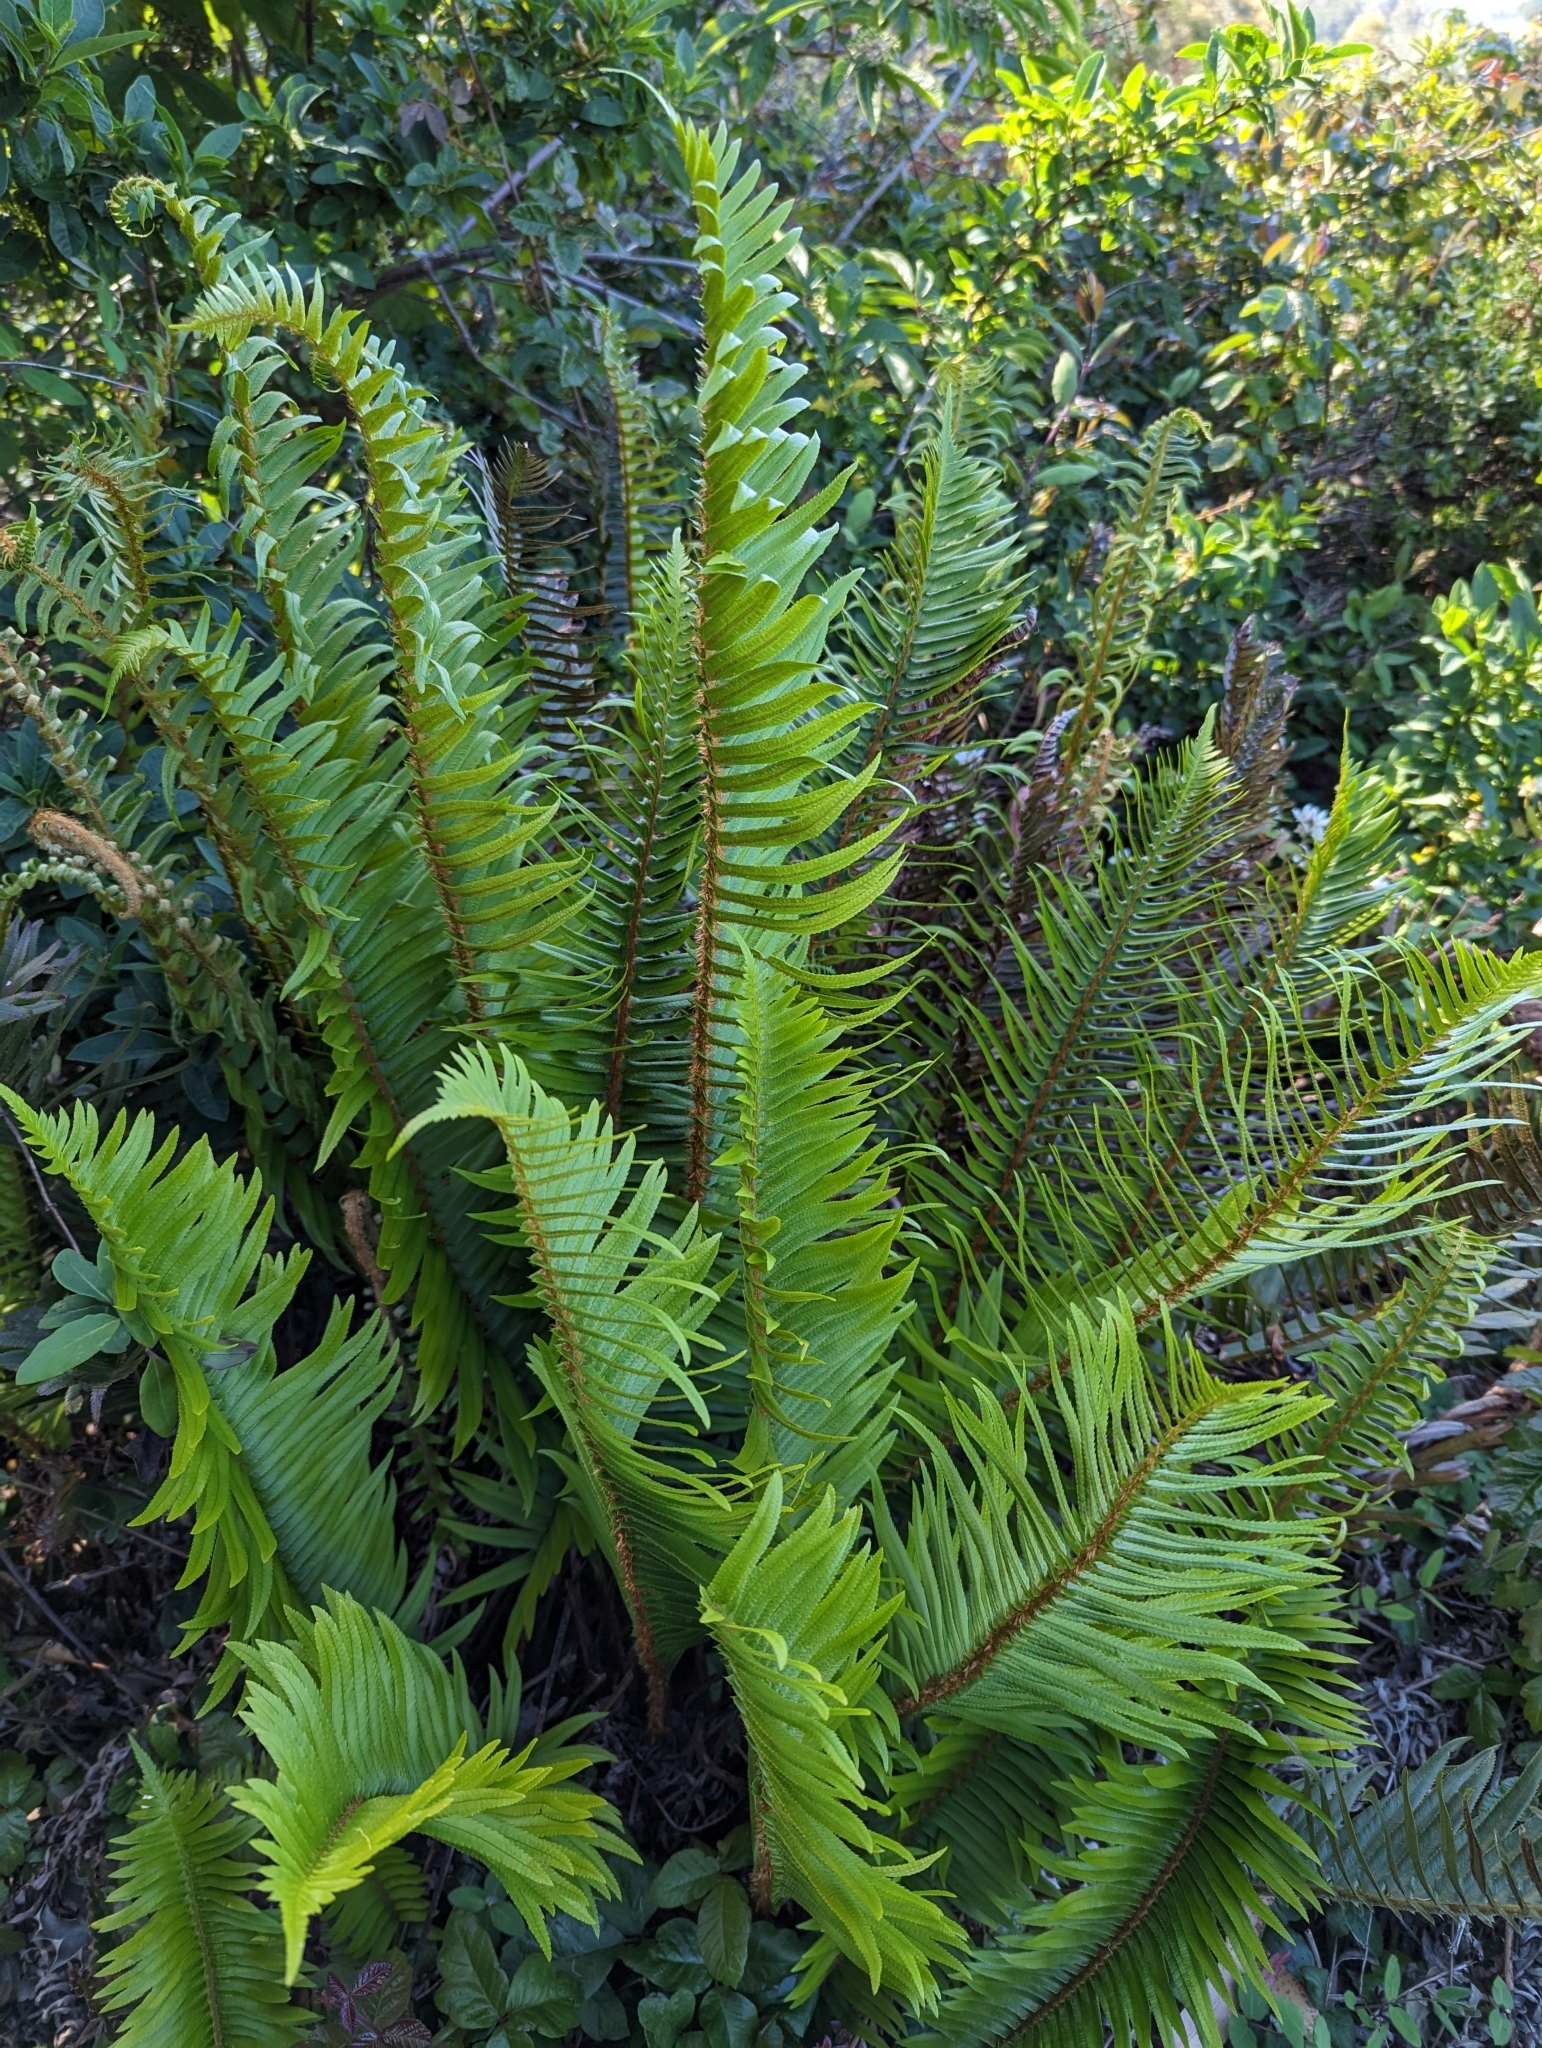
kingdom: Plantae
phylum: Tracheophyta
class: Polypodiopsida
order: Polypodiales
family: Dryopteridaceae
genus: Polystichum
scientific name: Polystichum munitum
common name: Western sword-fern
